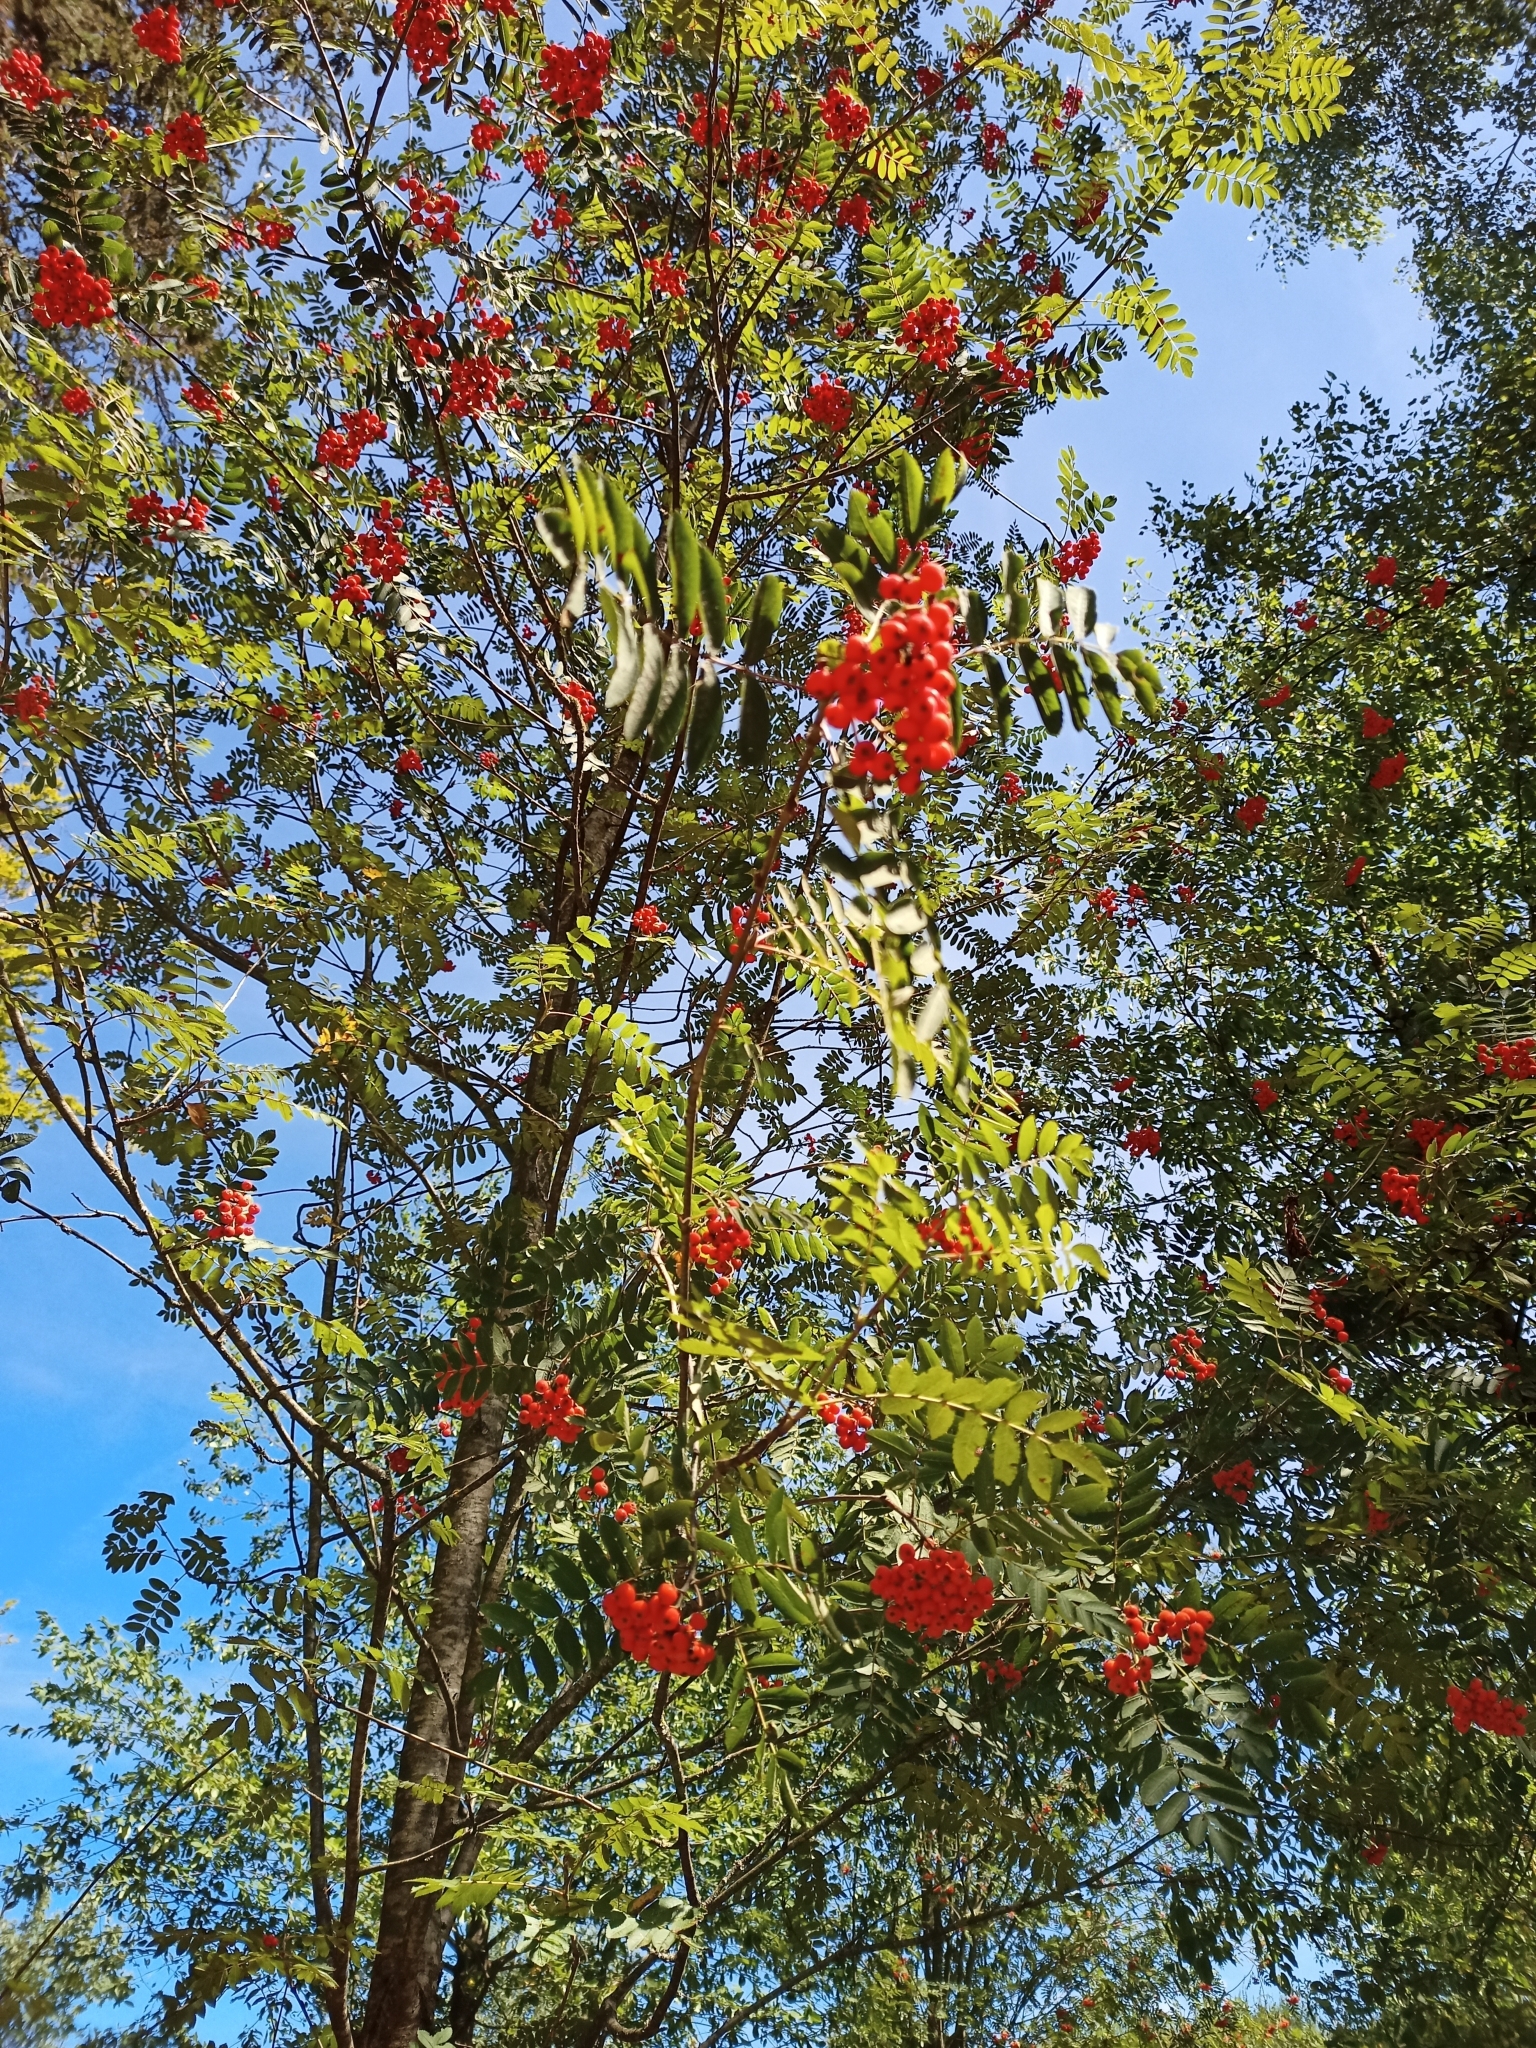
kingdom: Plantae
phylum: Tracheophyta
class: Magnoliopsida
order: Rosales
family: Rosaceae
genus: Sorbus
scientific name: Sorbus aucuparia
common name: Rowan
